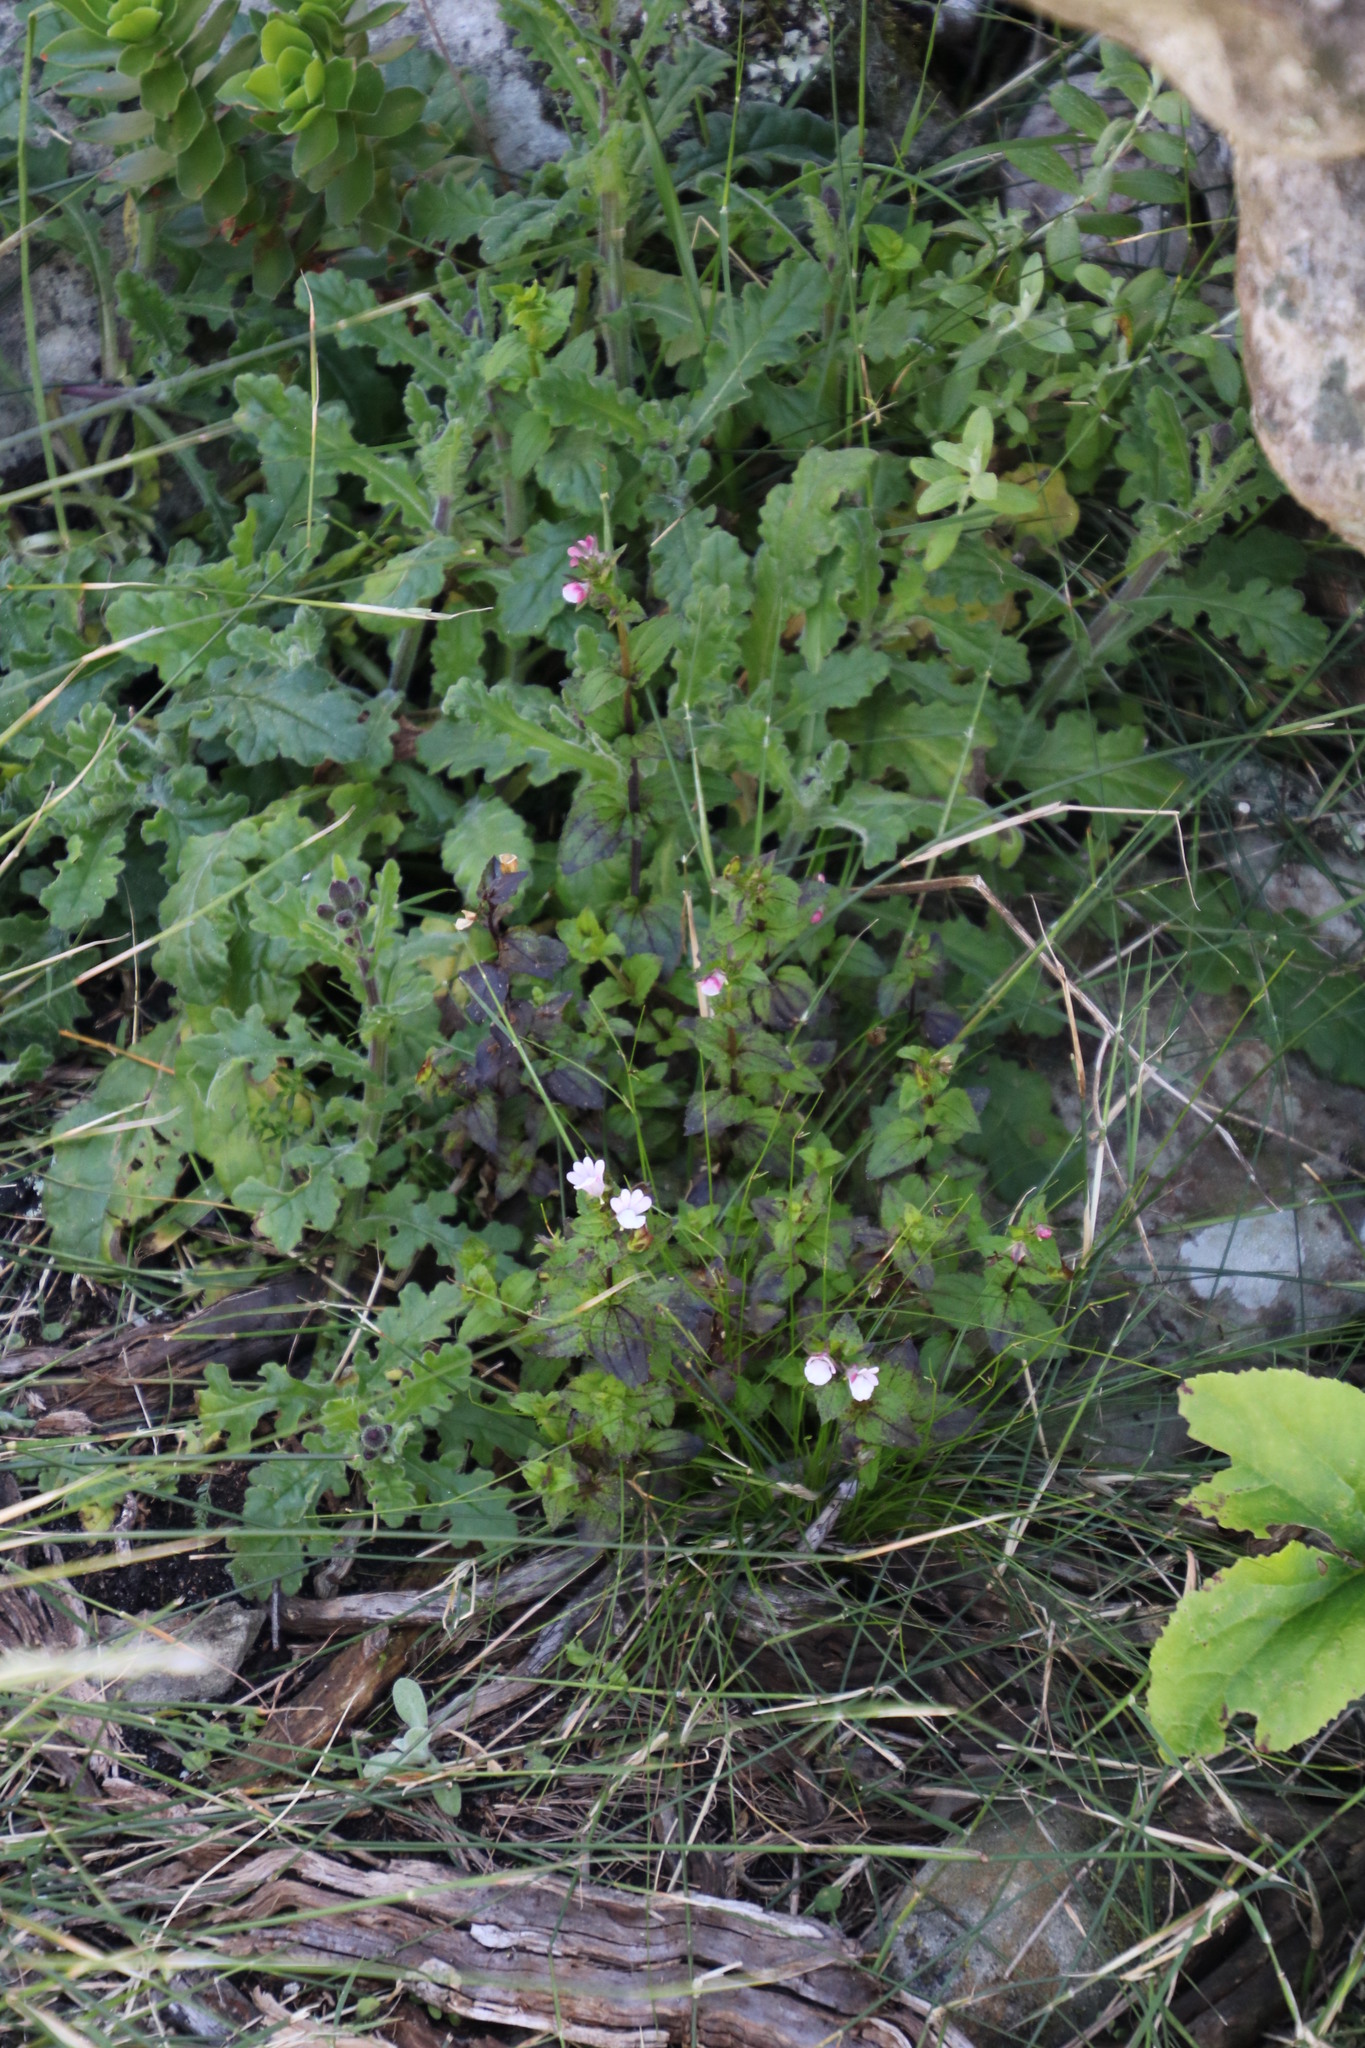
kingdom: Plantae
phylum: Tracheophyta
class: Magnoliopsida
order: Lamiales
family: Scrophulariaceae
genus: Nemesia
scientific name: Nemesia macrocarpa
